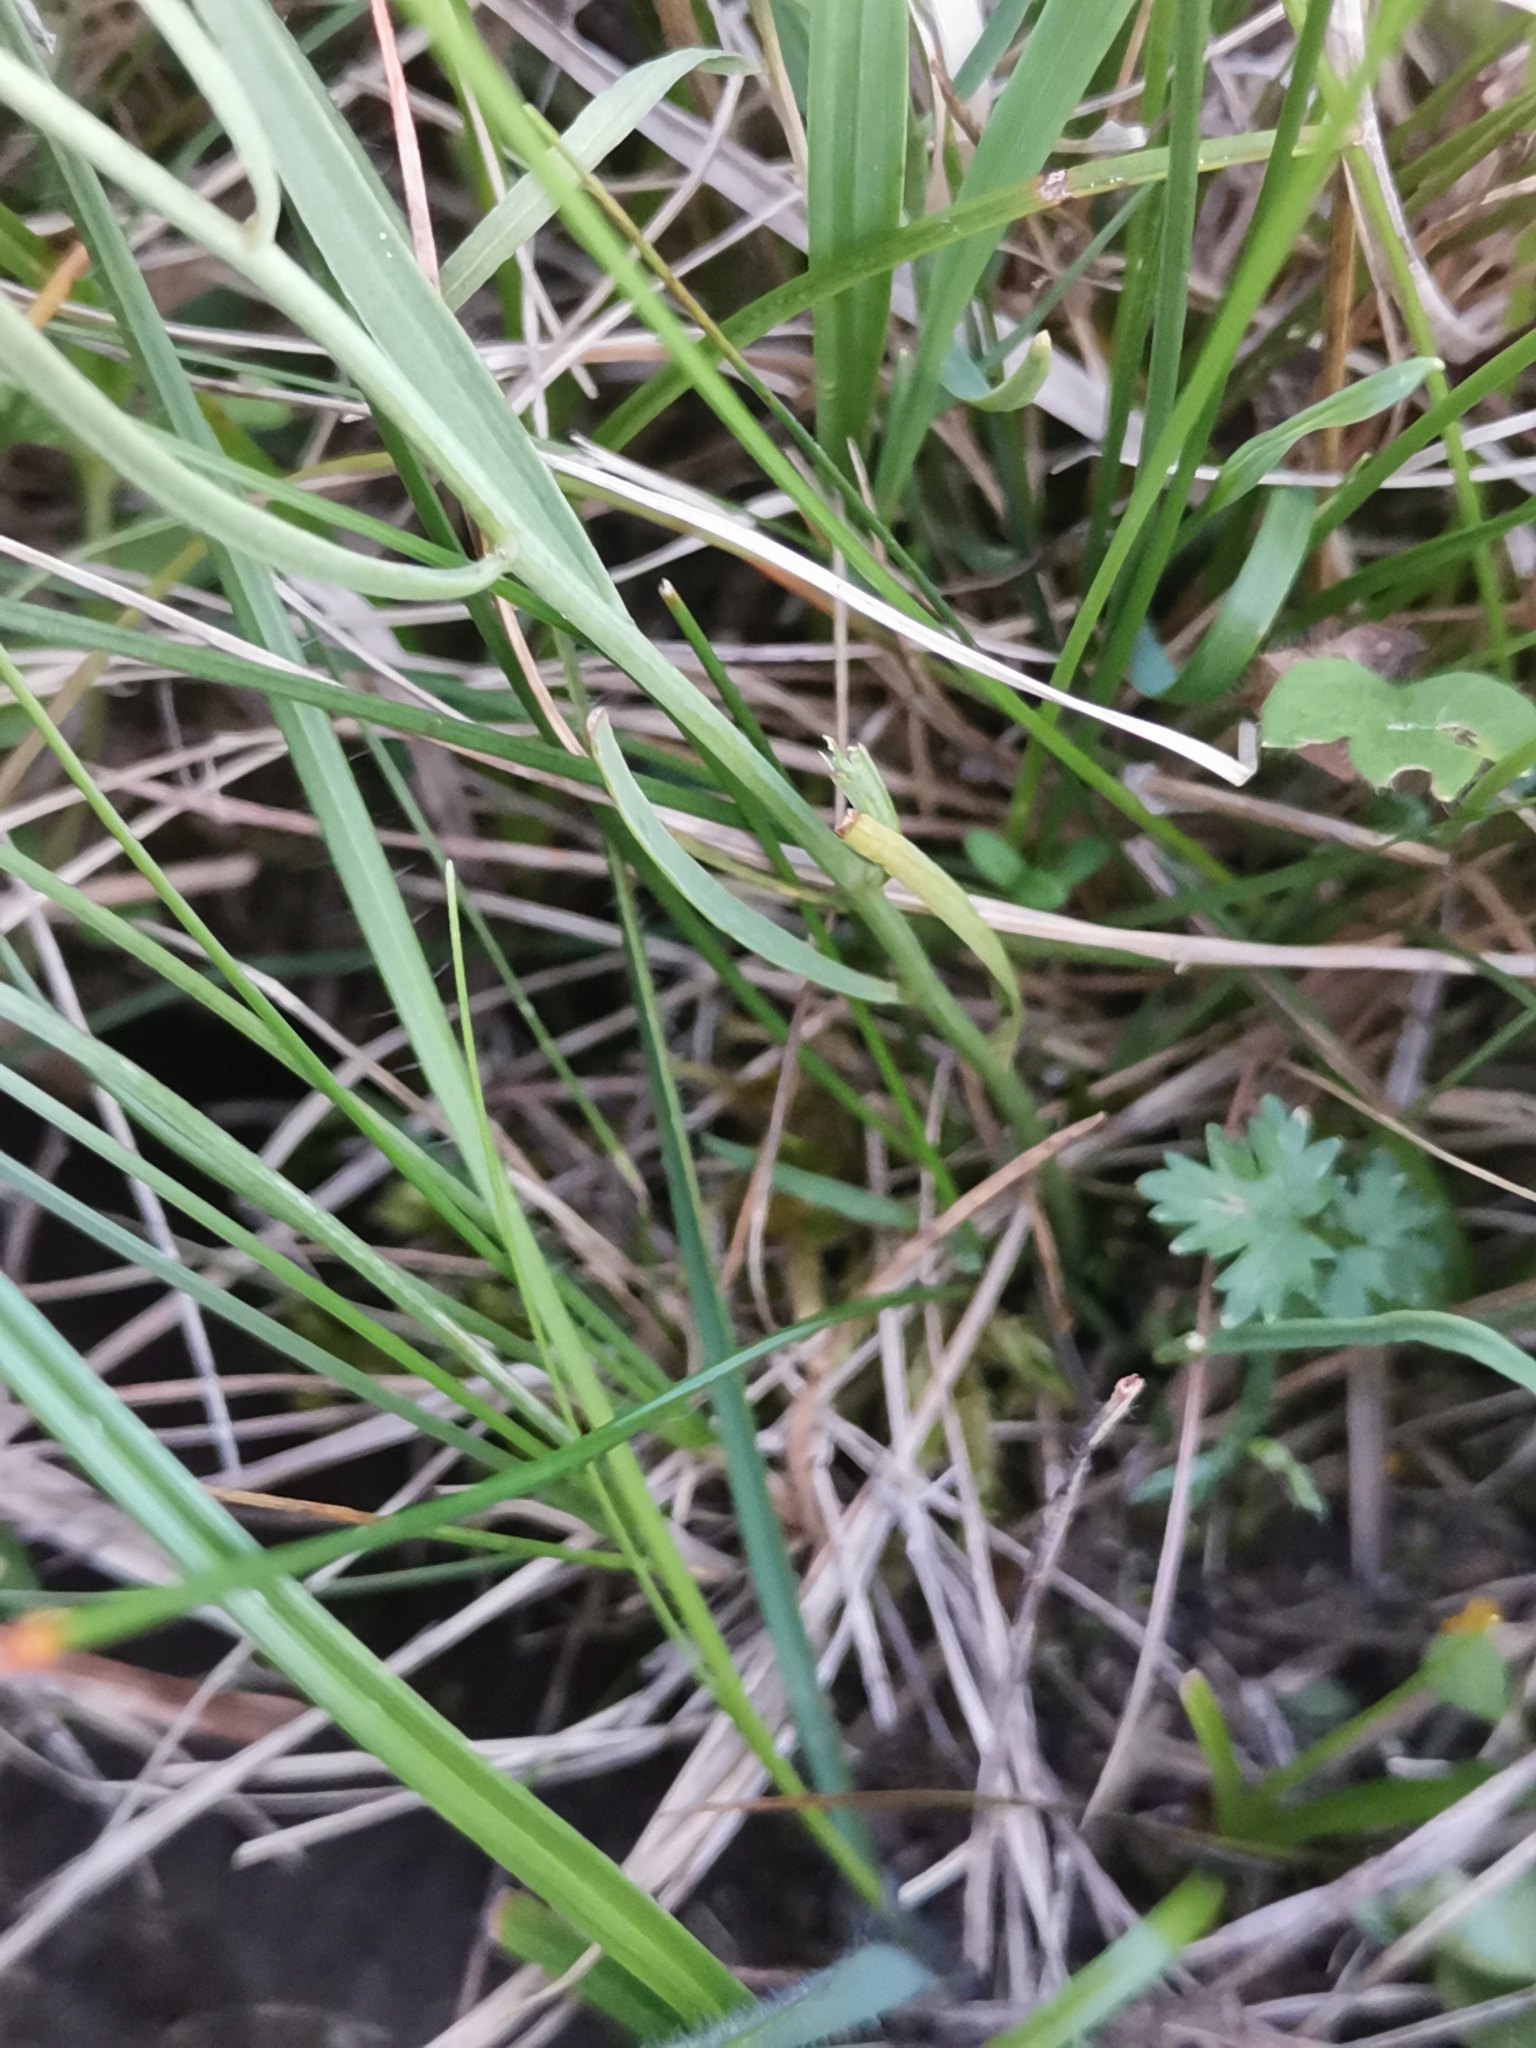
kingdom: Plantae
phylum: Tracheophyta
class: Magnoliopsida
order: Santalales
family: Thesiaceae
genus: Thesium
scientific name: Thesium linophyllon
